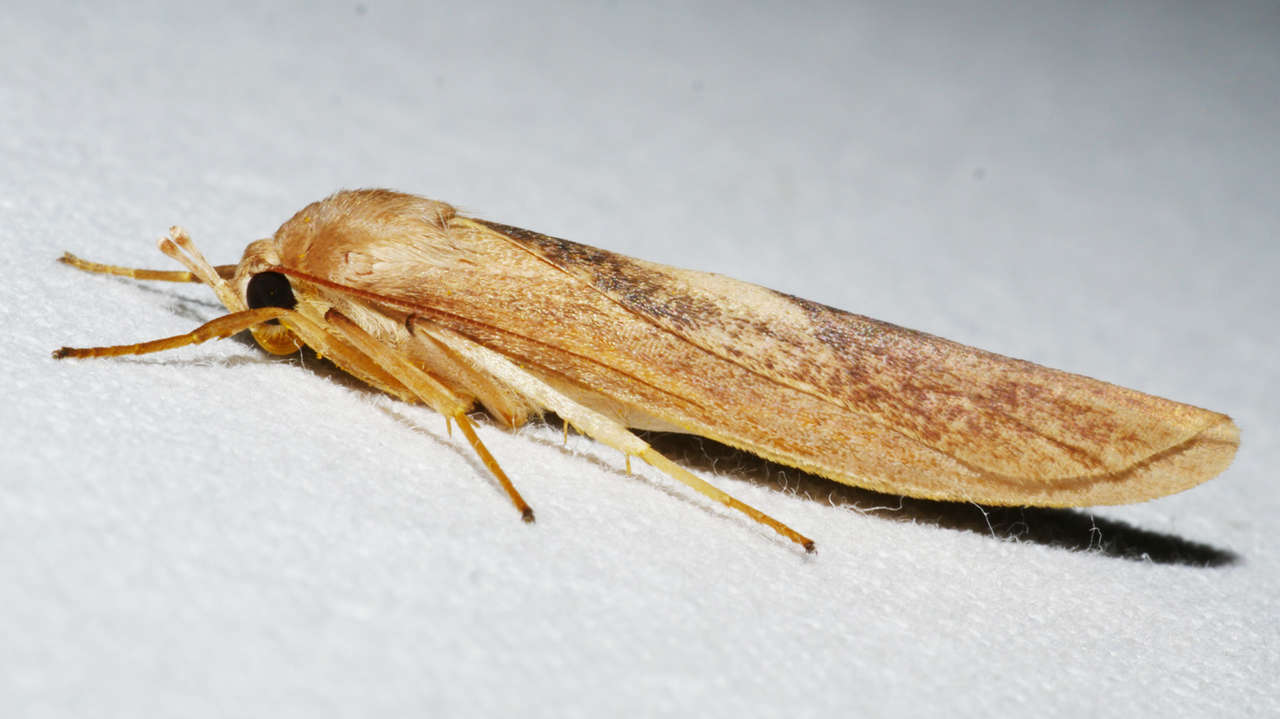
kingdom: Animalia
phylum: Arthropoda
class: Insecta
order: Lepidoptera
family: Erebidae
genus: Calamidia
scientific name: Calamidia hirta
